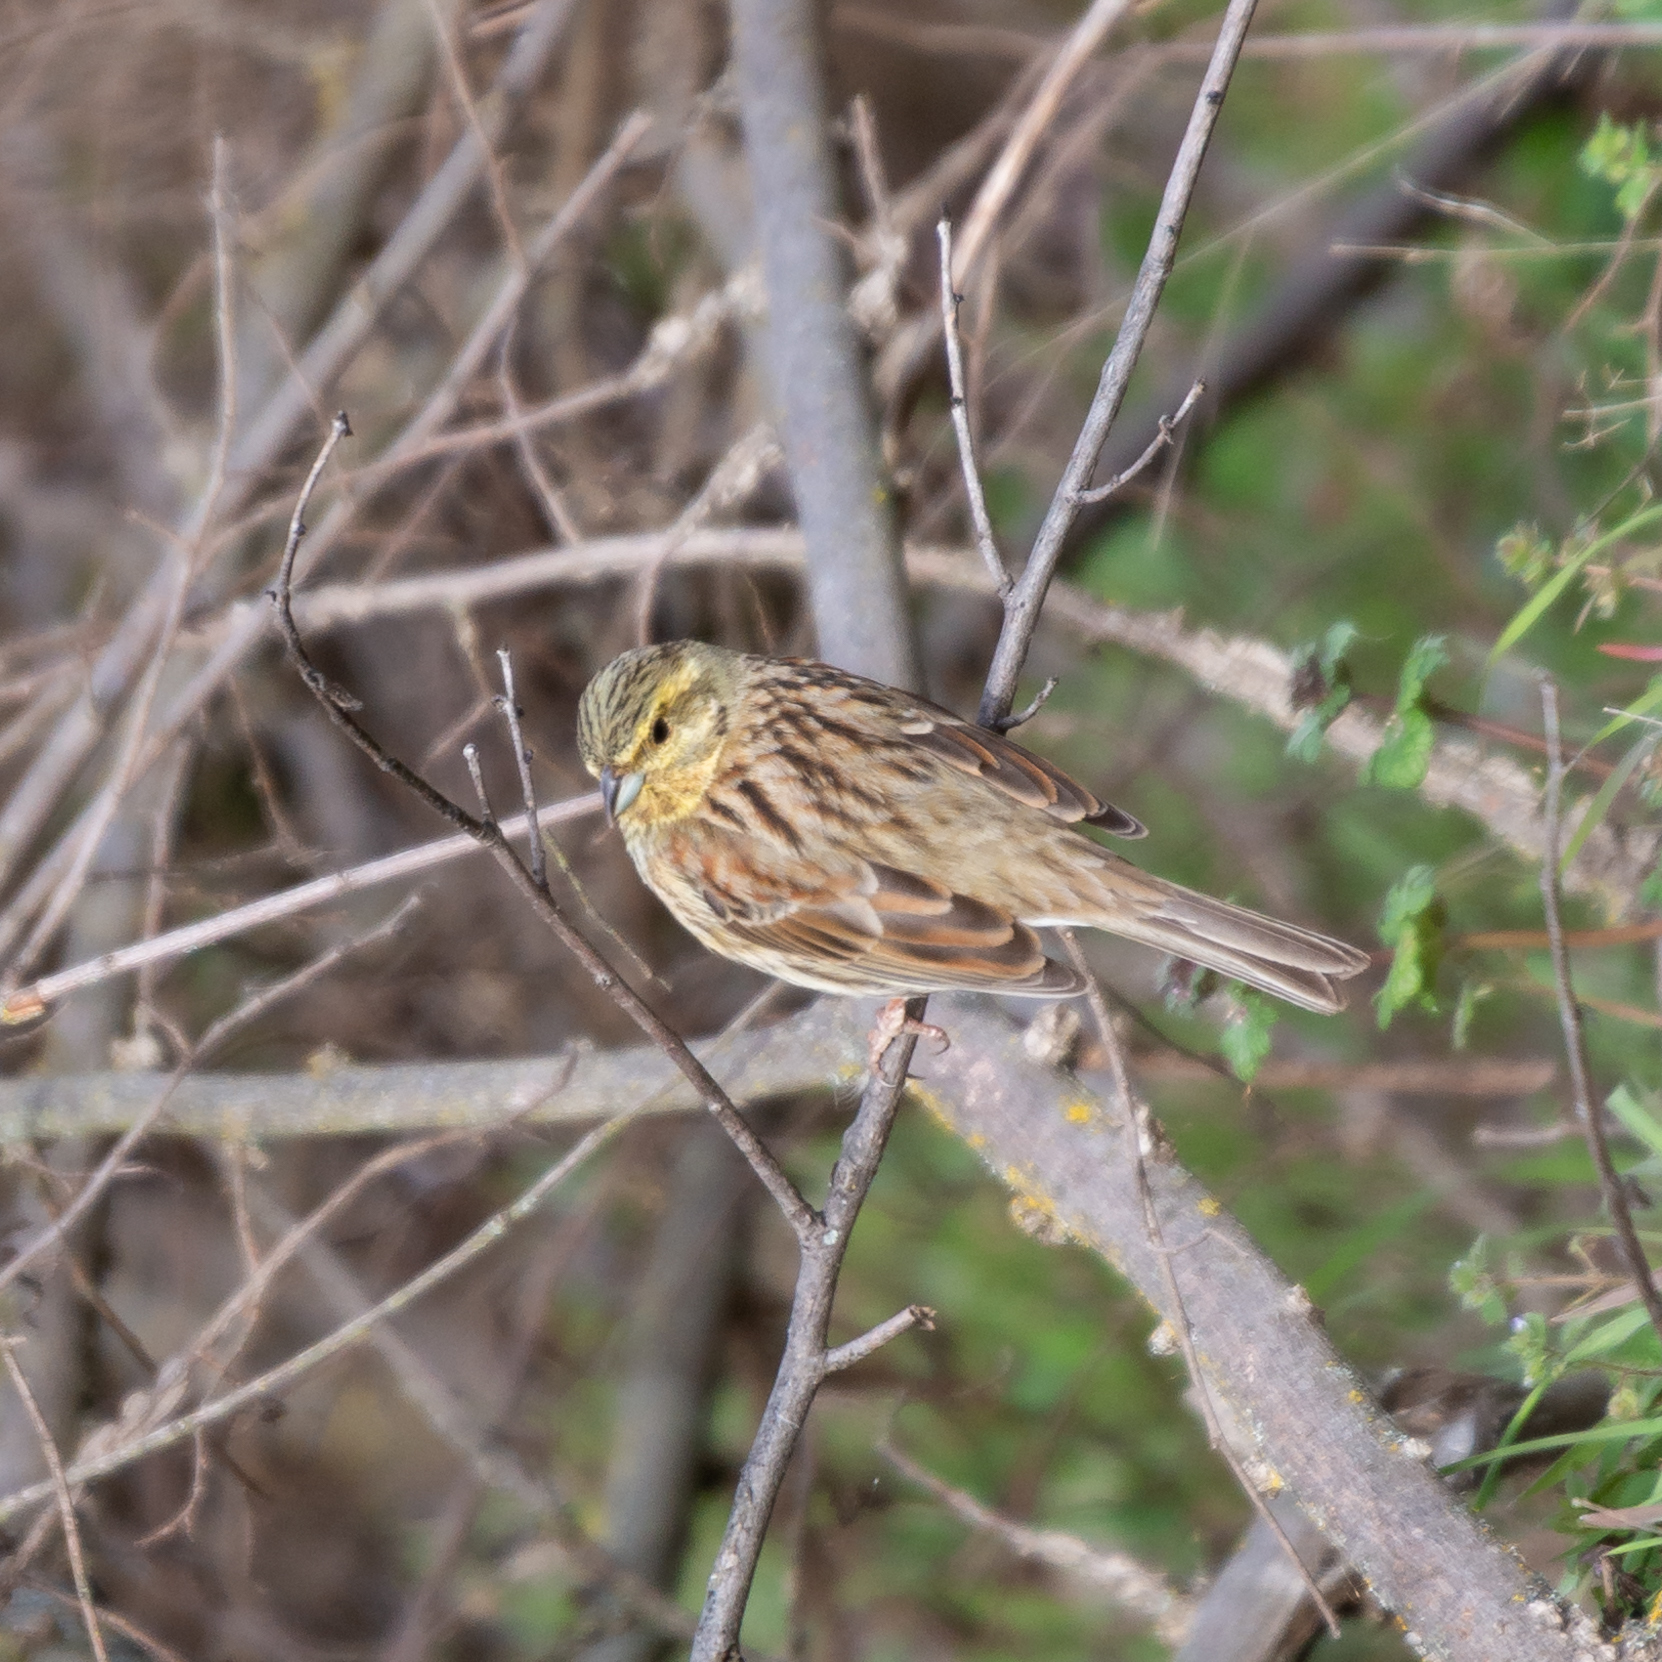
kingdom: Animalia
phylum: Chordata
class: Aves
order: Passeriformes
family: Emberizidae
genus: Emberiza
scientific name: Emberiza cirlus
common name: Cirl bunting
